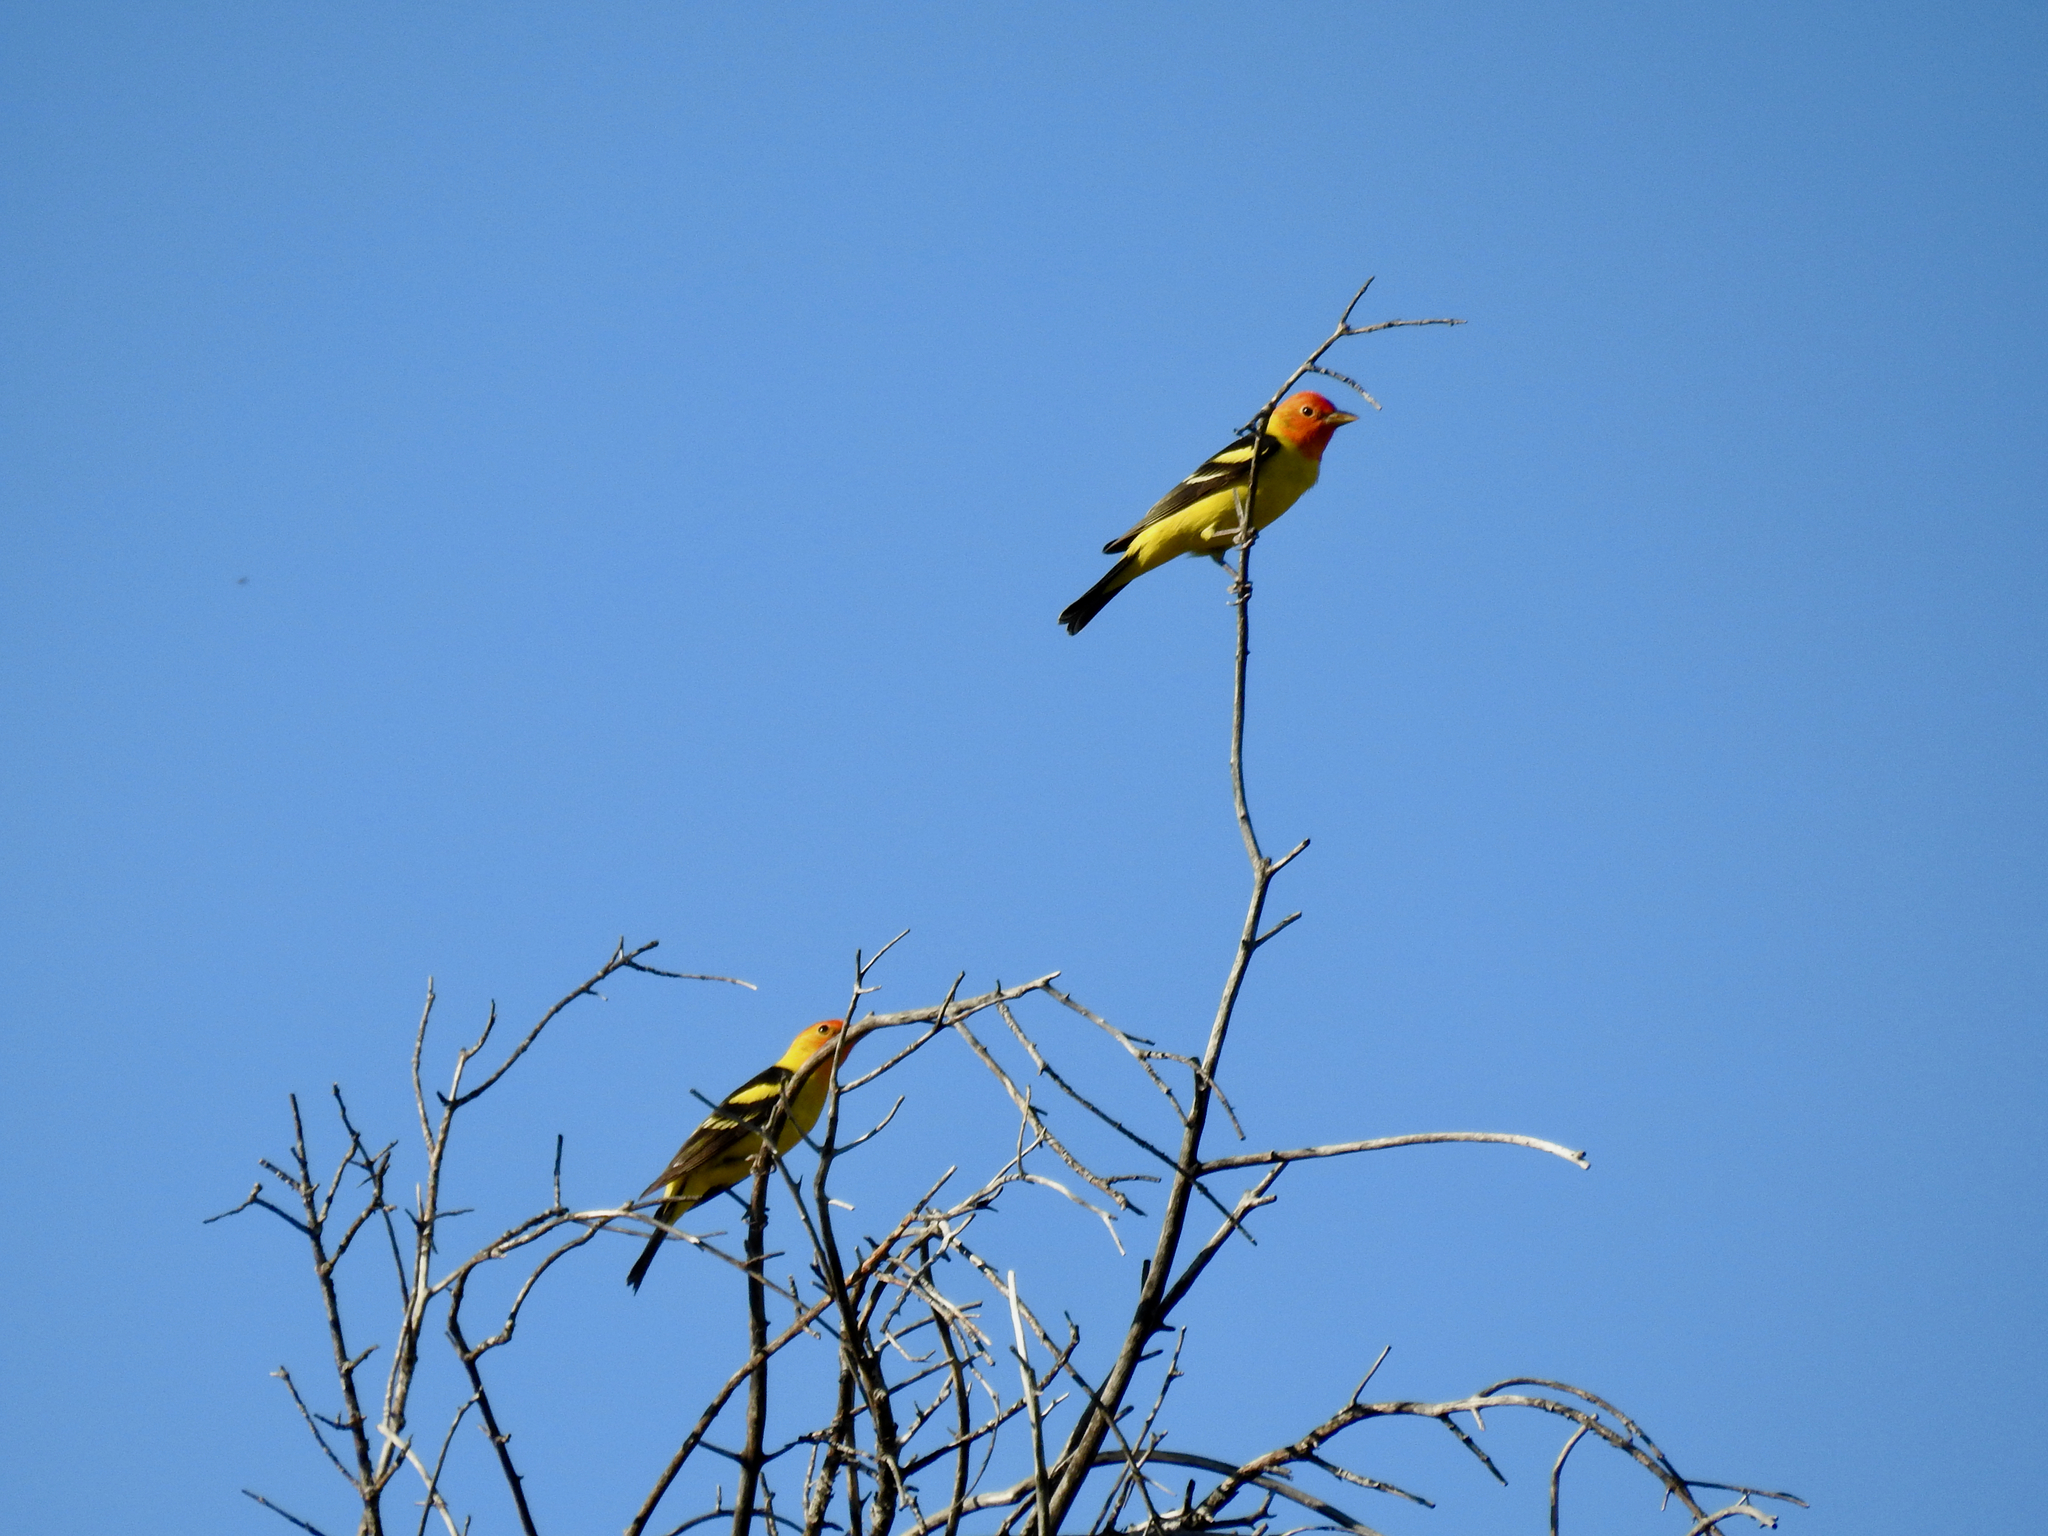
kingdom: Animalia
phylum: Chordata
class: Aves
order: Passeriformes
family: Cardinalidae
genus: Piranga
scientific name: Piranga ludoviciana
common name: Western tanager
